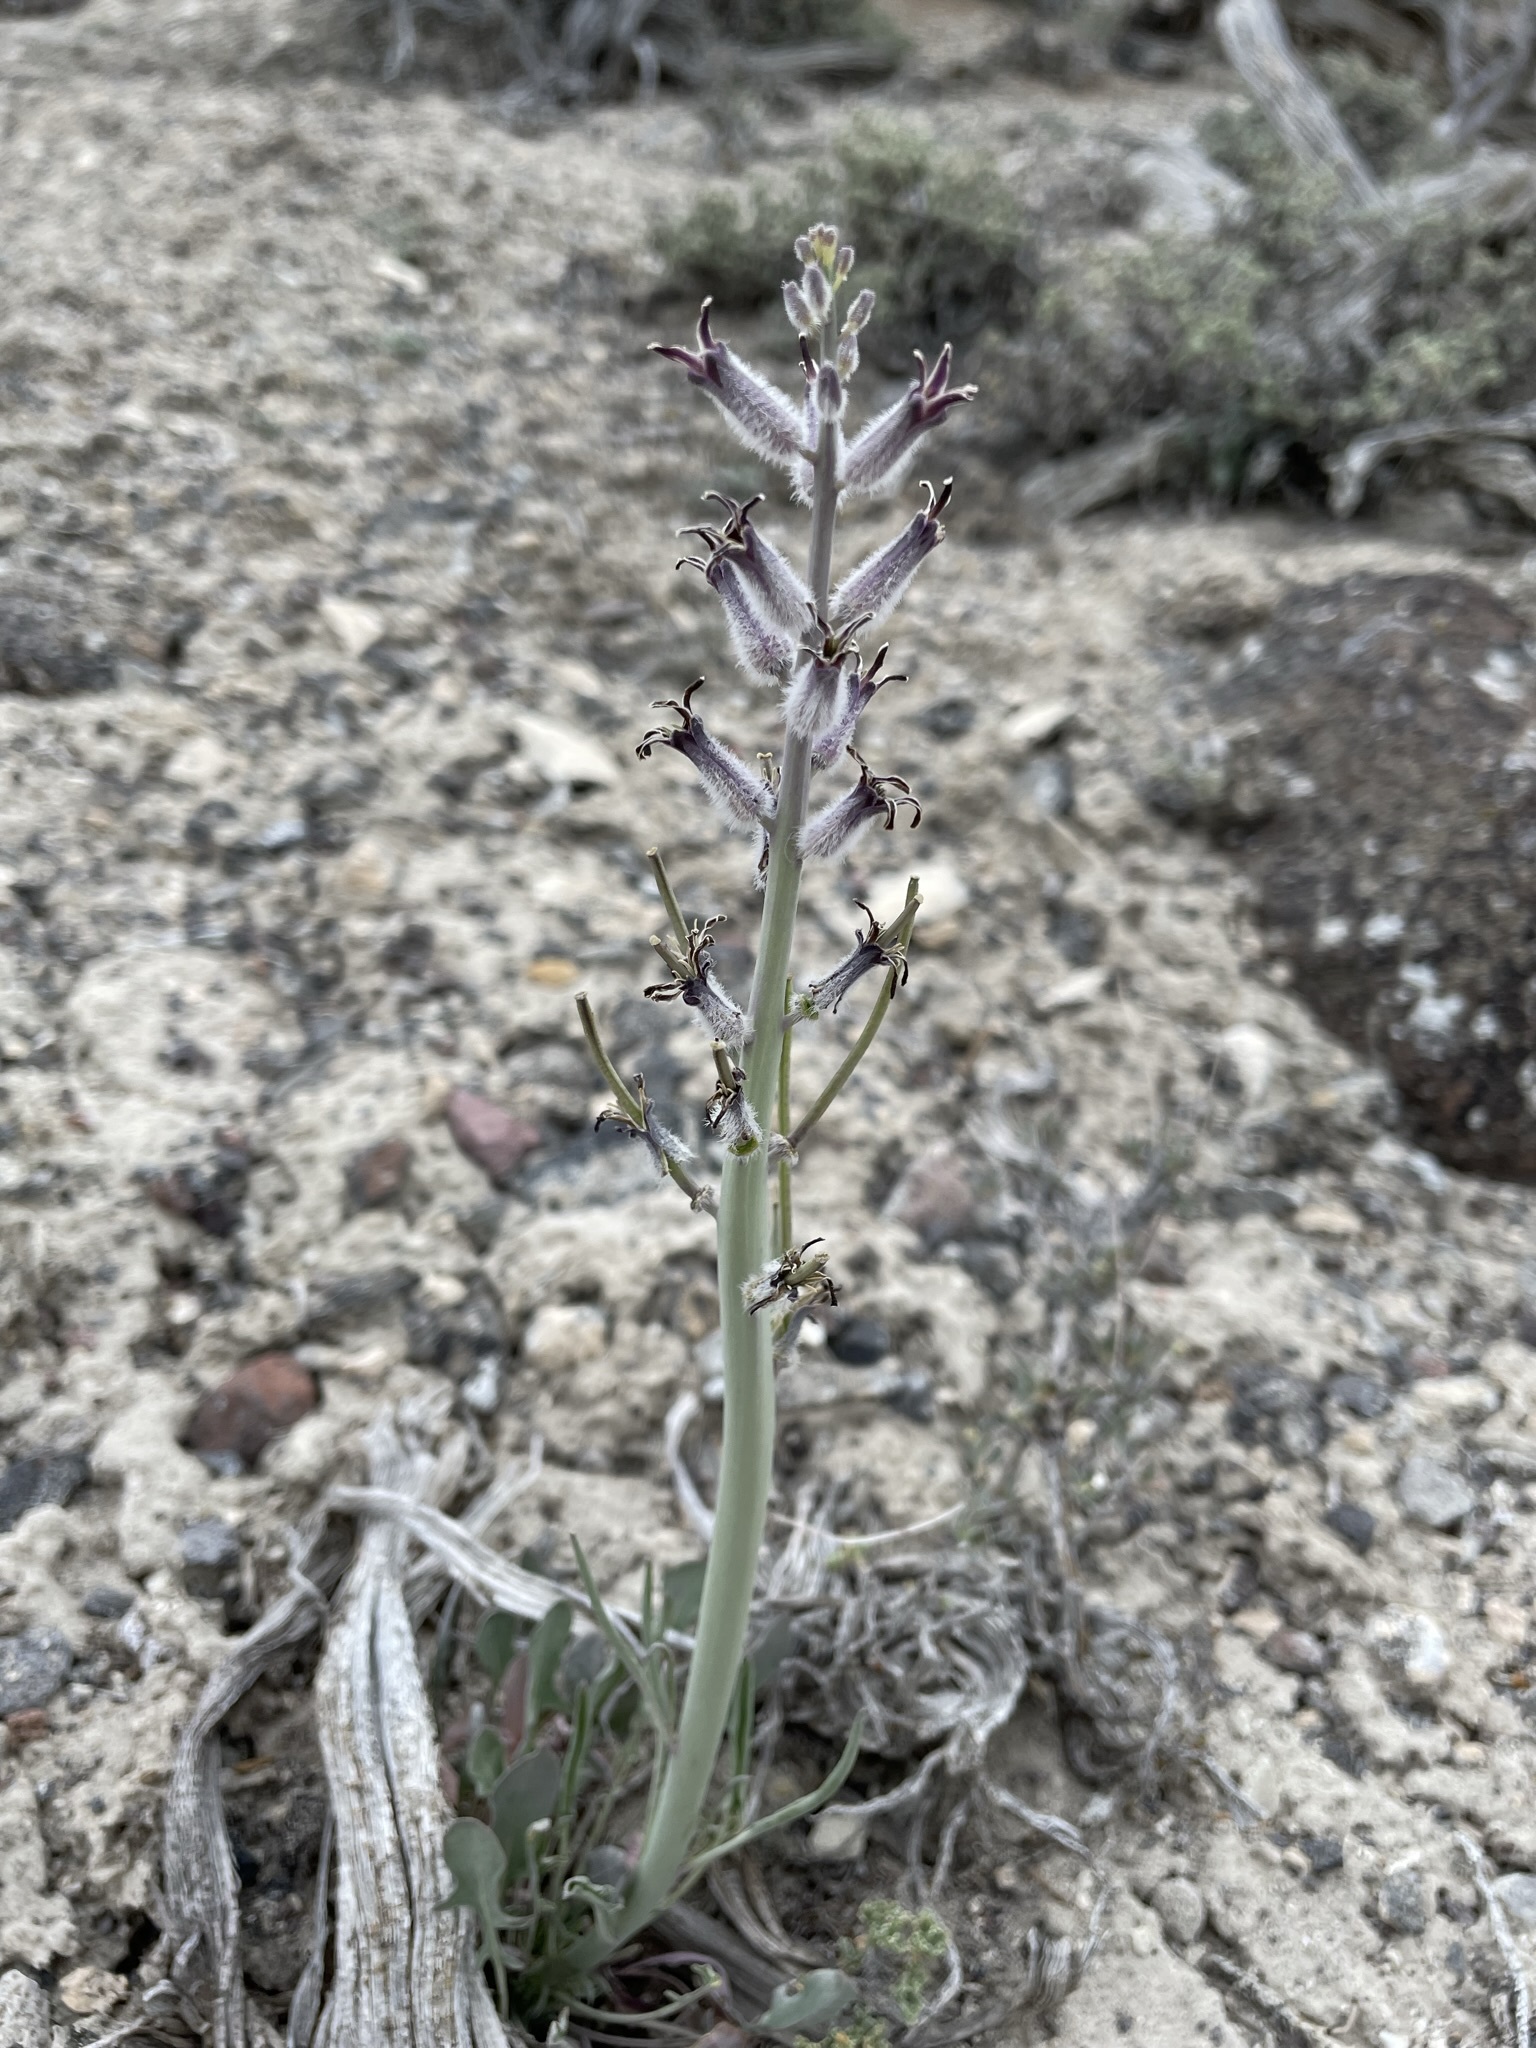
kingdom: Plantae
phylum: Tracheophyta
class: Magnoliopsida
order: Brassicales
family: Brassicaceae
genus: Streptanthus
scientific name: Streptanthus crassicaulis
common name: Thick-stem wild cabbage
